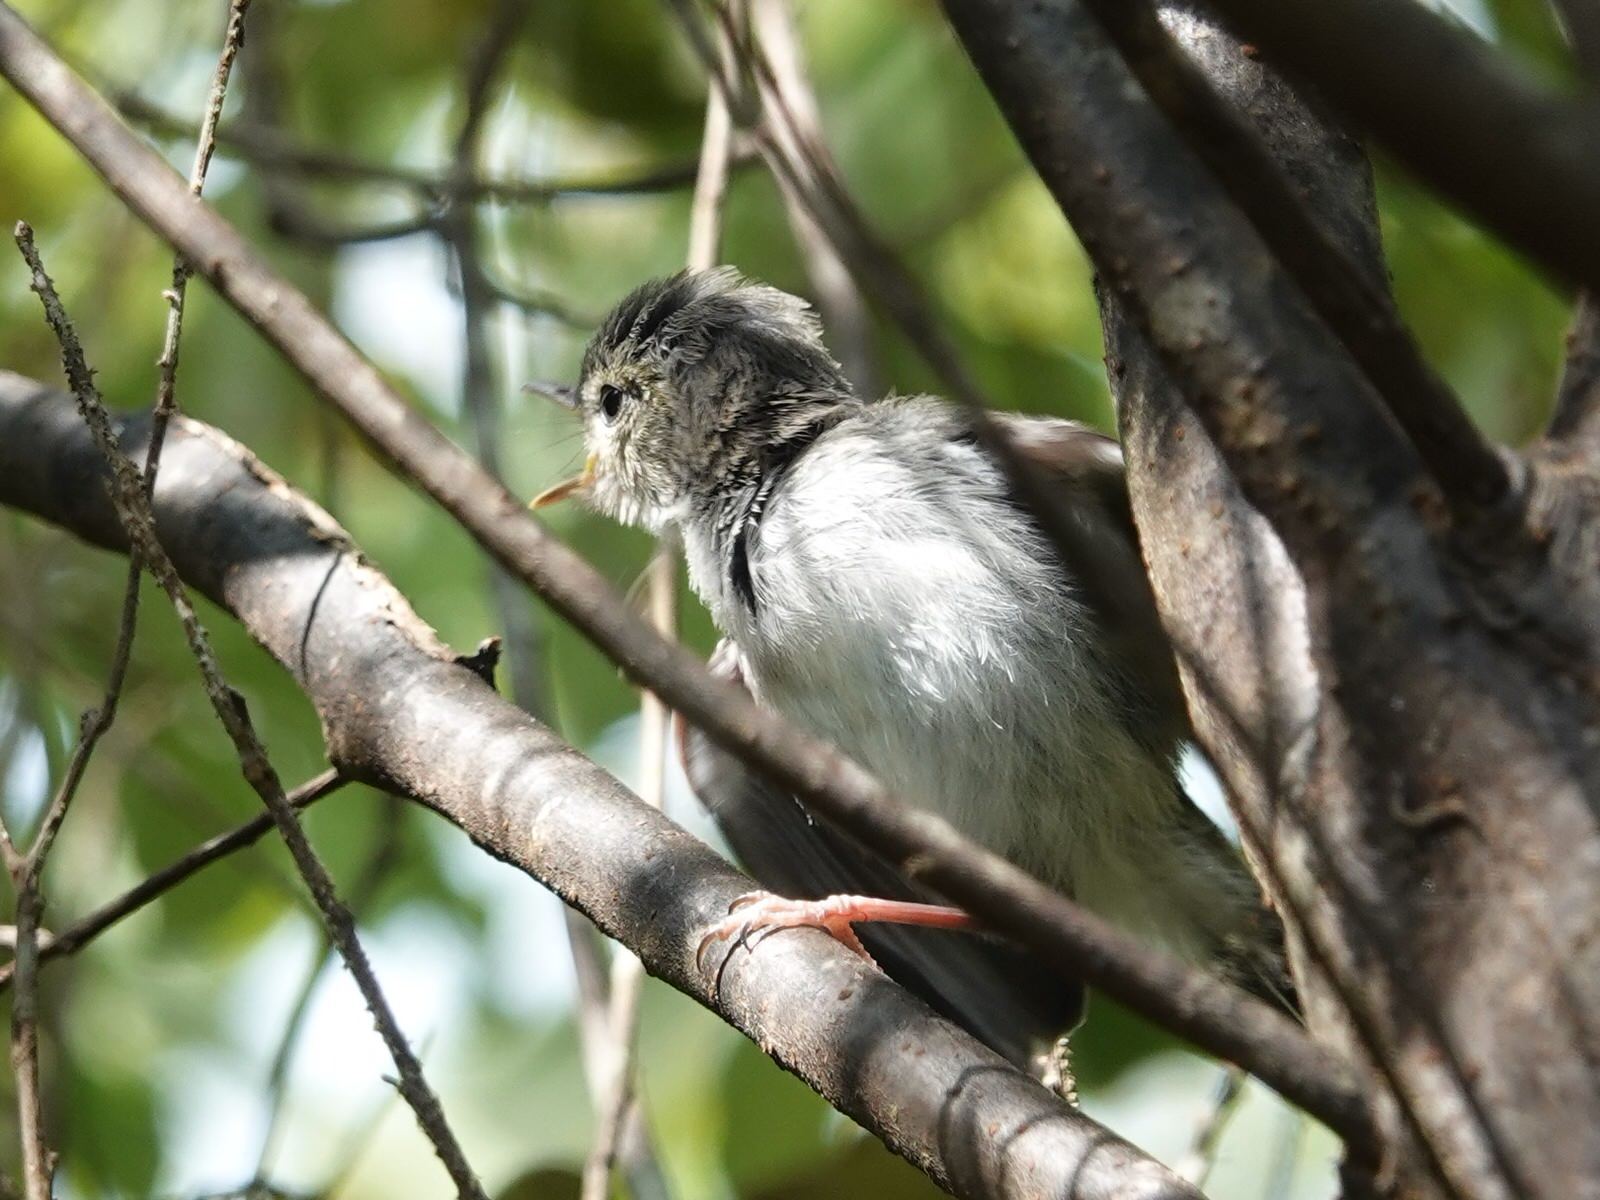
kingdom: Animalia
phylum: Chordata
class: Aves
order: Passeriformes
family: Acanthizidae
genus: Gerygone
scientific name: Gerygone igata
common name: Grey gerygone
